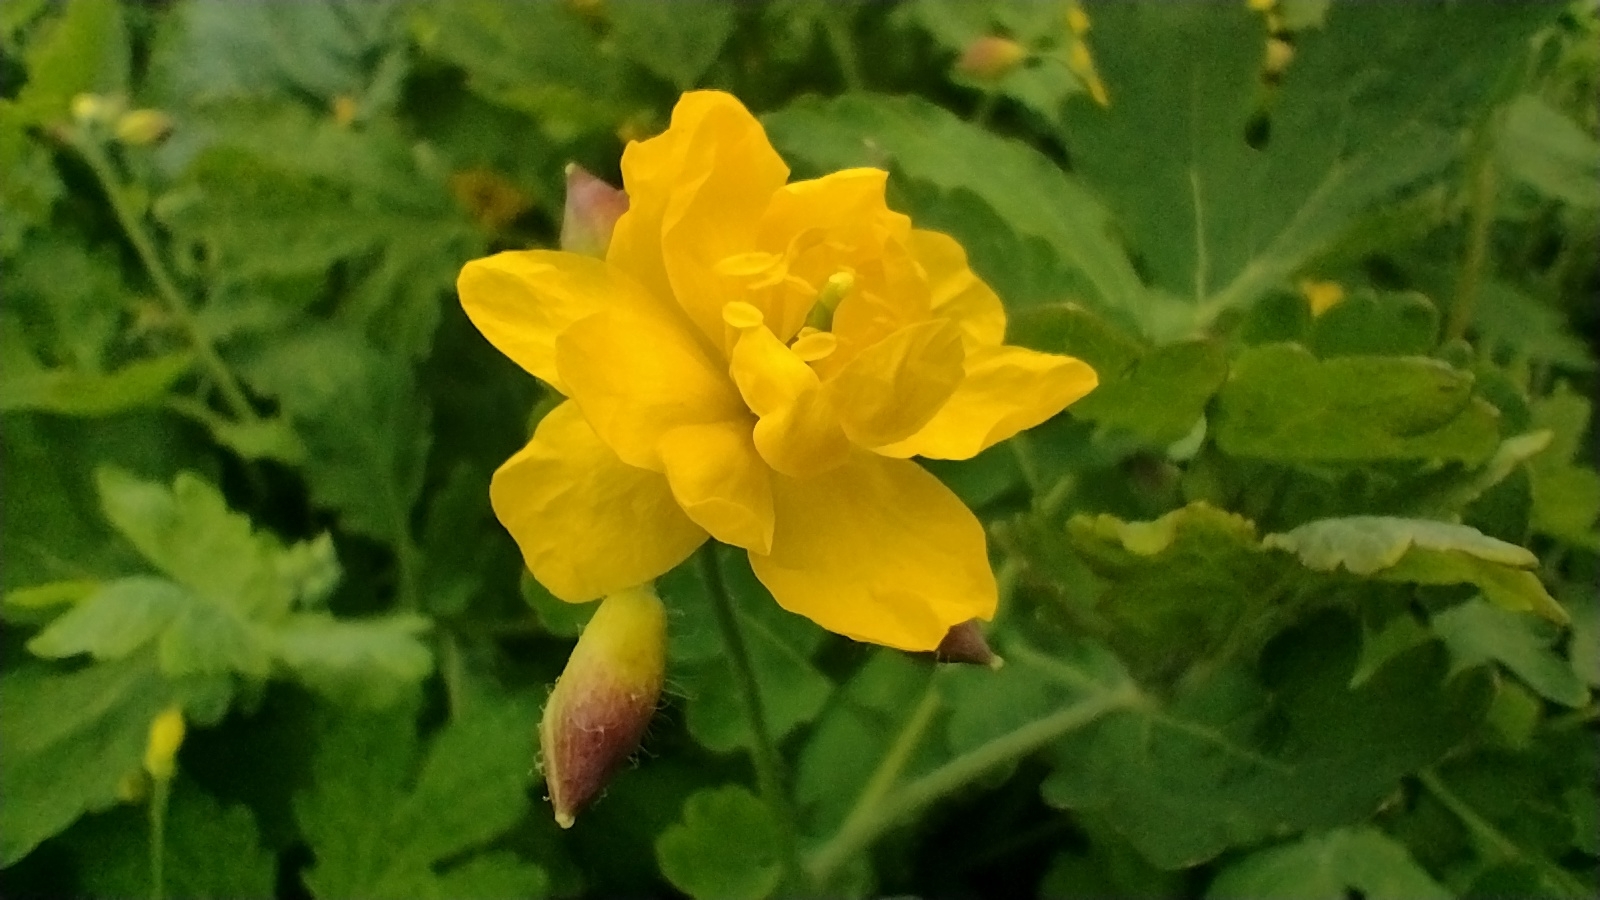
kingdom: Plantae
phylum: Tracheophyta
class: Magnoliopsida
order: Ranunculales
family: Papaveraceae
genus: Chelidonium
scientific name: Chelidonium majus
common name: Greater celandine
